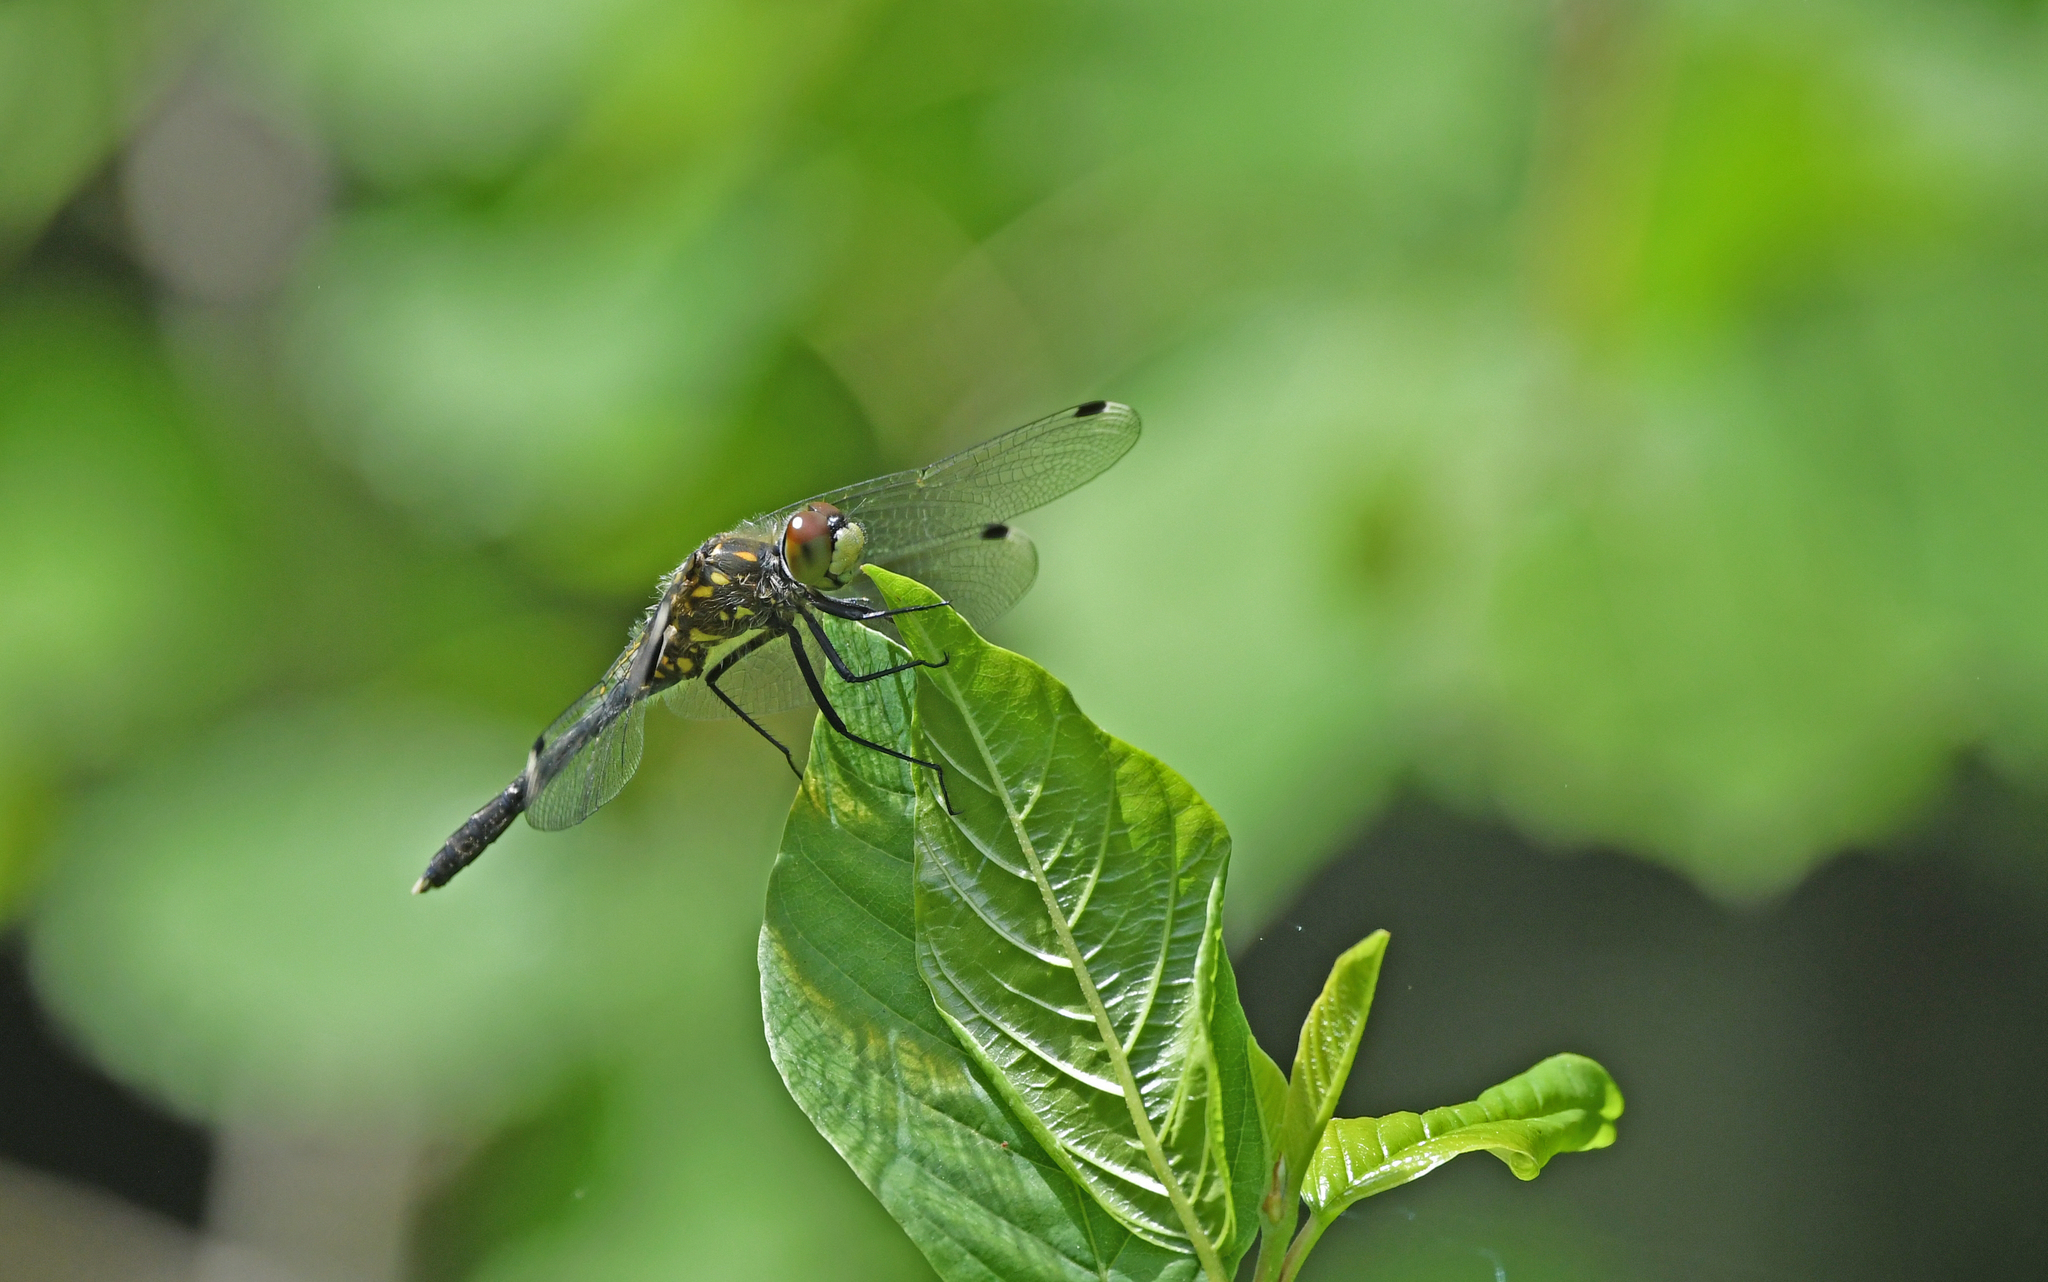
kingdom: Animalia
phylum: Arthropoda
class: Insecta
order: Odonata
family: Libellulidae
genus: Leucorrhinia
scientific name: Leucorrhinia albifrons
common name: Dark whiteface
